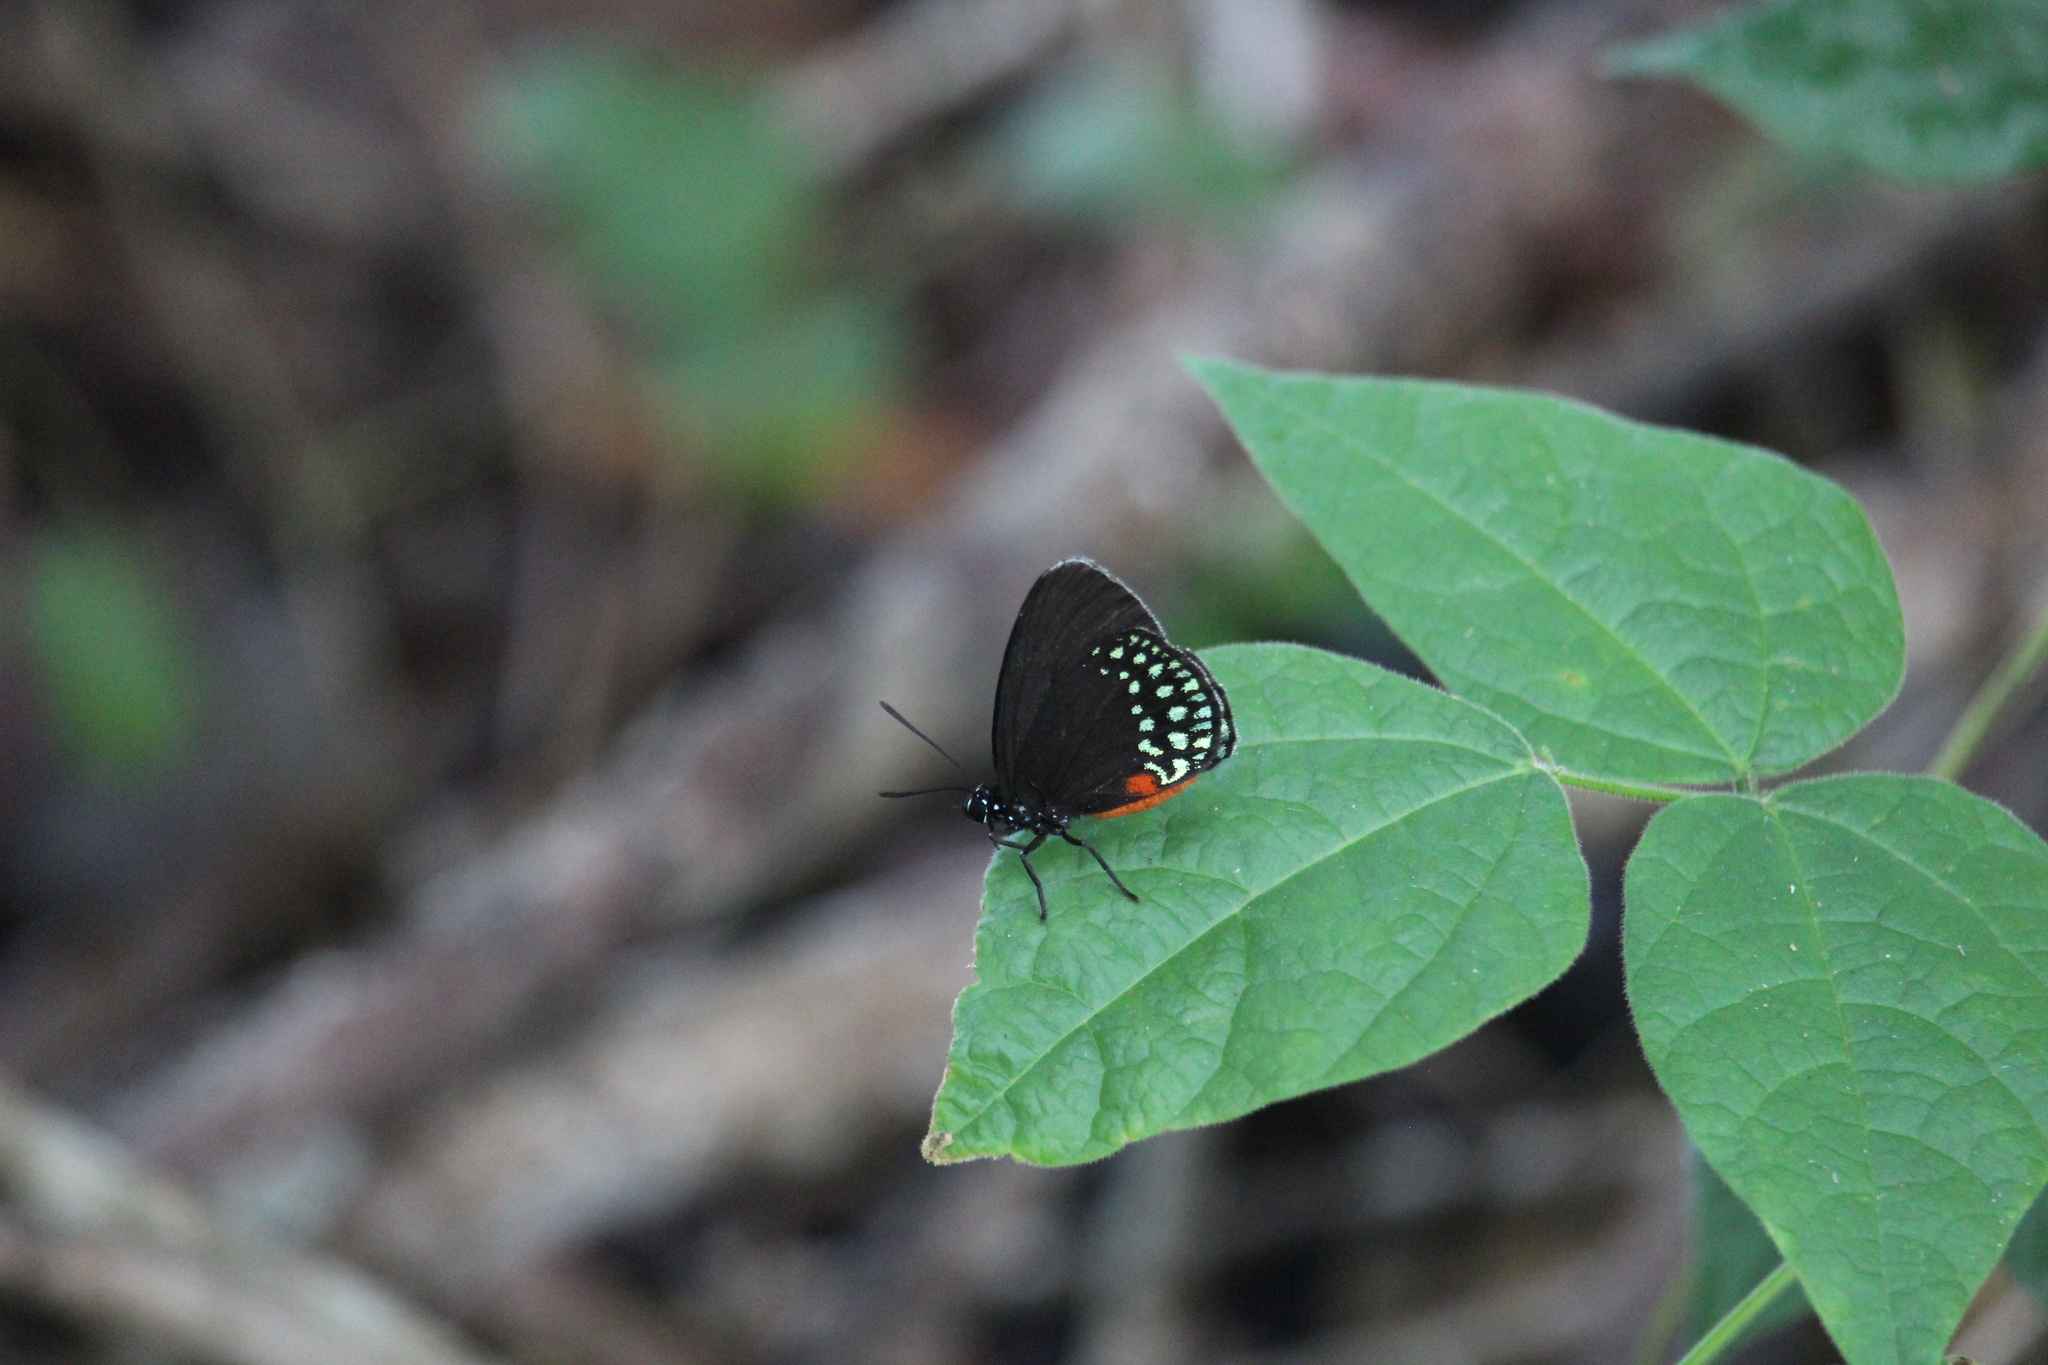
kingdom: Animalia
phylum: Arthropoda
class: Insecta
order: Lepidoptera
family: Lycaenidae
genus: Eumaeus
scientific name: Eumaeus toxea
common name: Mexican cycadian
